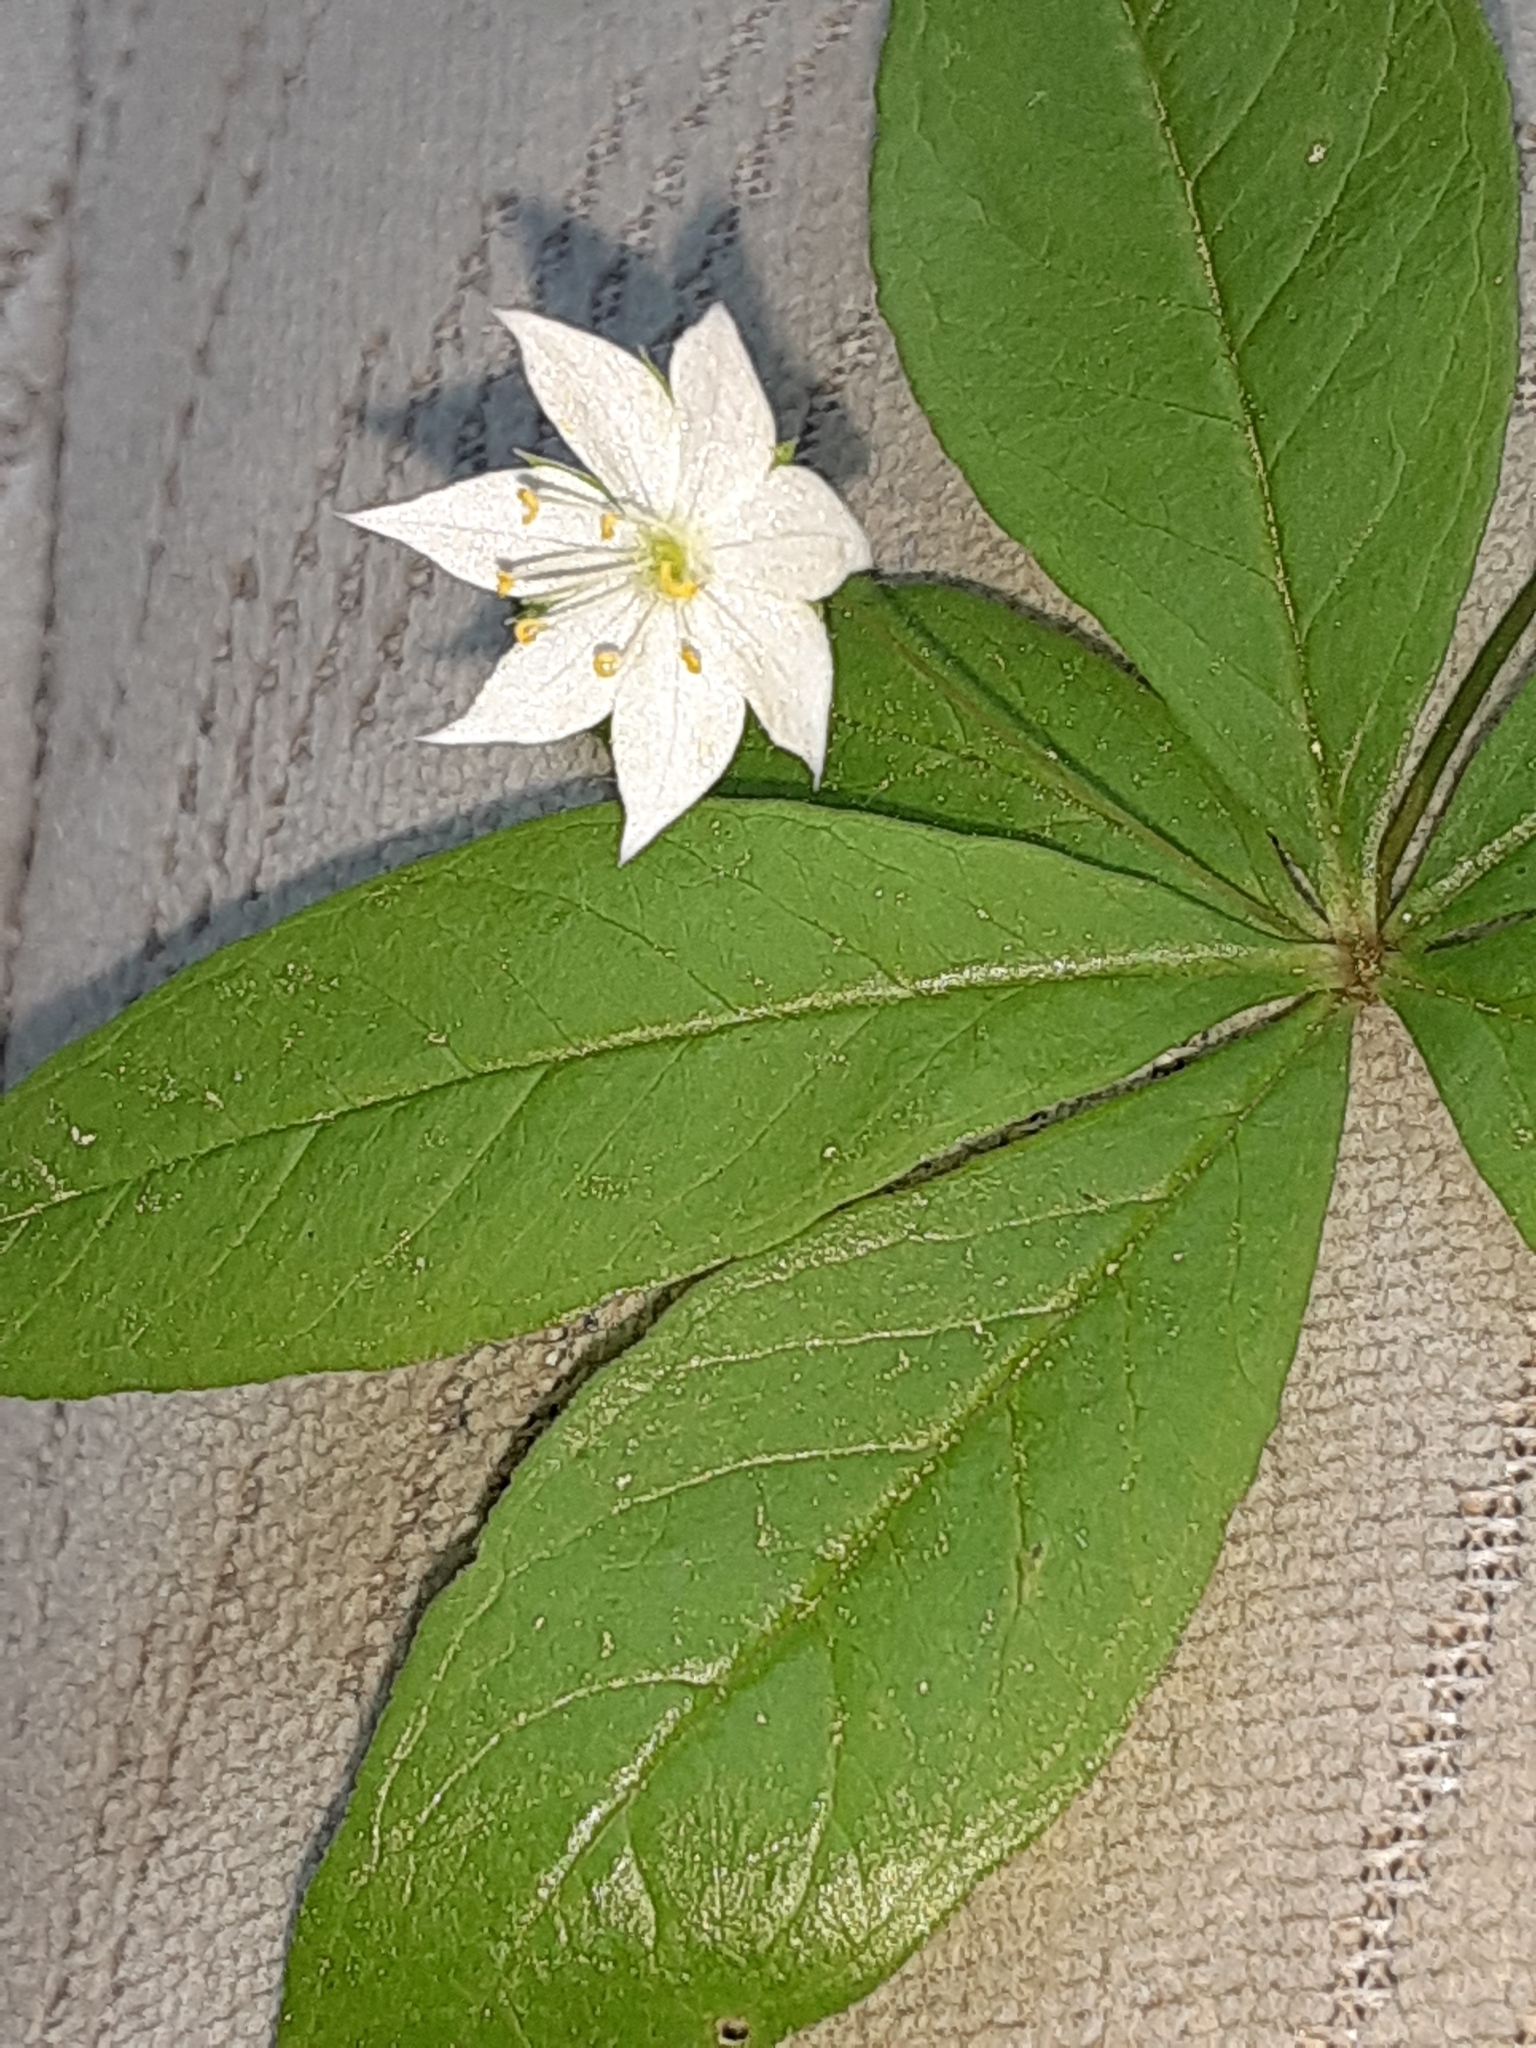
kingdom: Plantae
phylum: Tracheophyta
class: Magnoliopsida
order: Ericales
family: Primulaceae
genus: Lysimachia
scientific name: Lysimachia borealis
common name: American starflower
